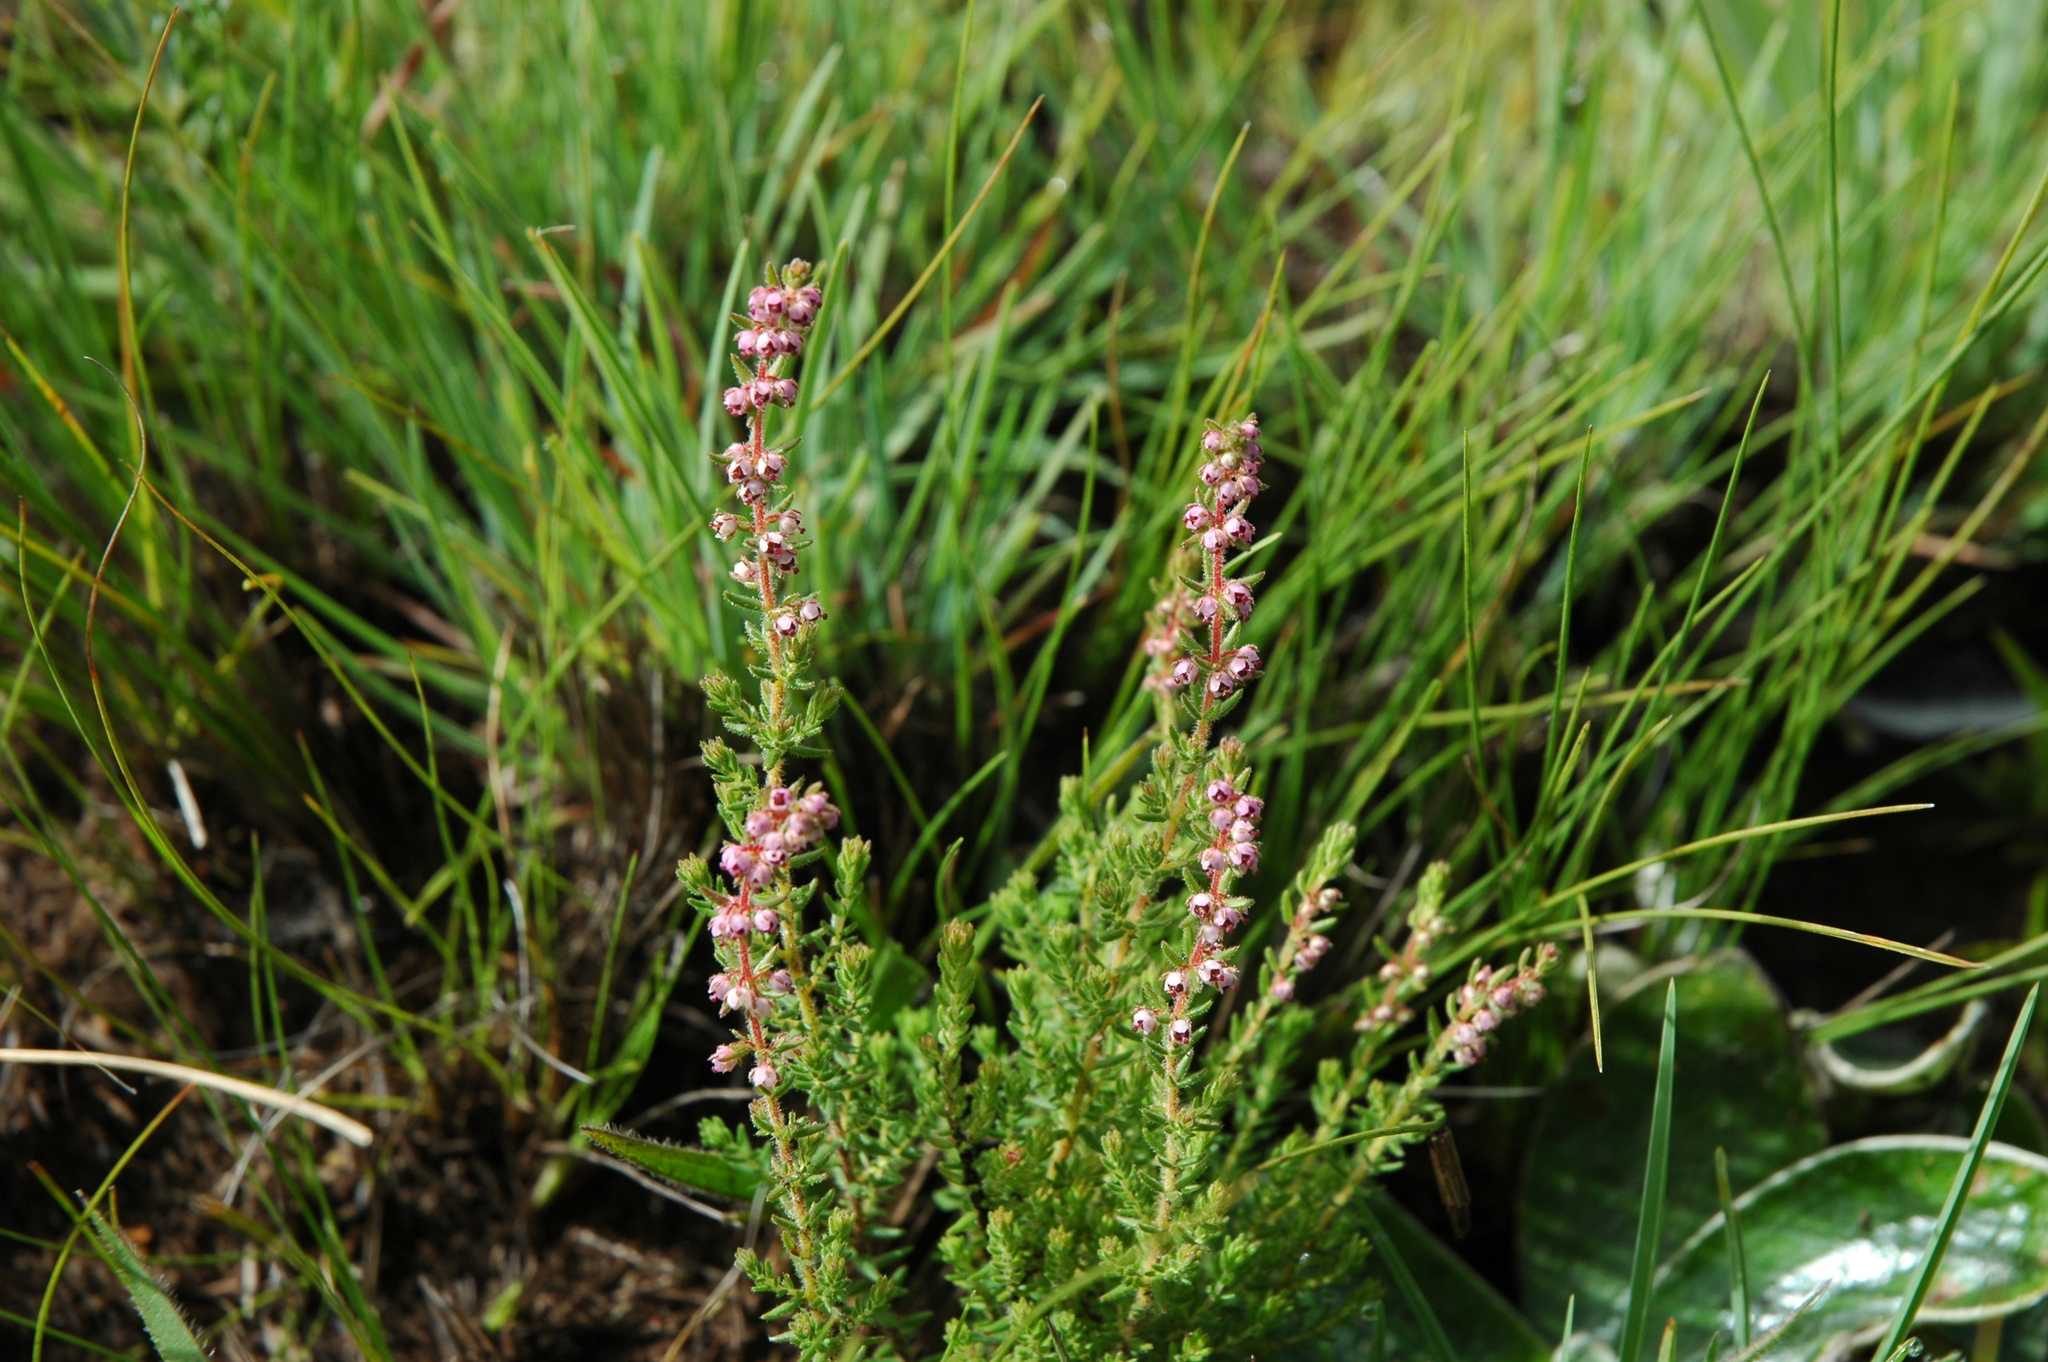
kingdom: Plantae
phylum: Tracheophyta
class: Magnoliopsida
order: Ericales
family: Ericaceae
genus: Erica
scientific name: Erica woodii
